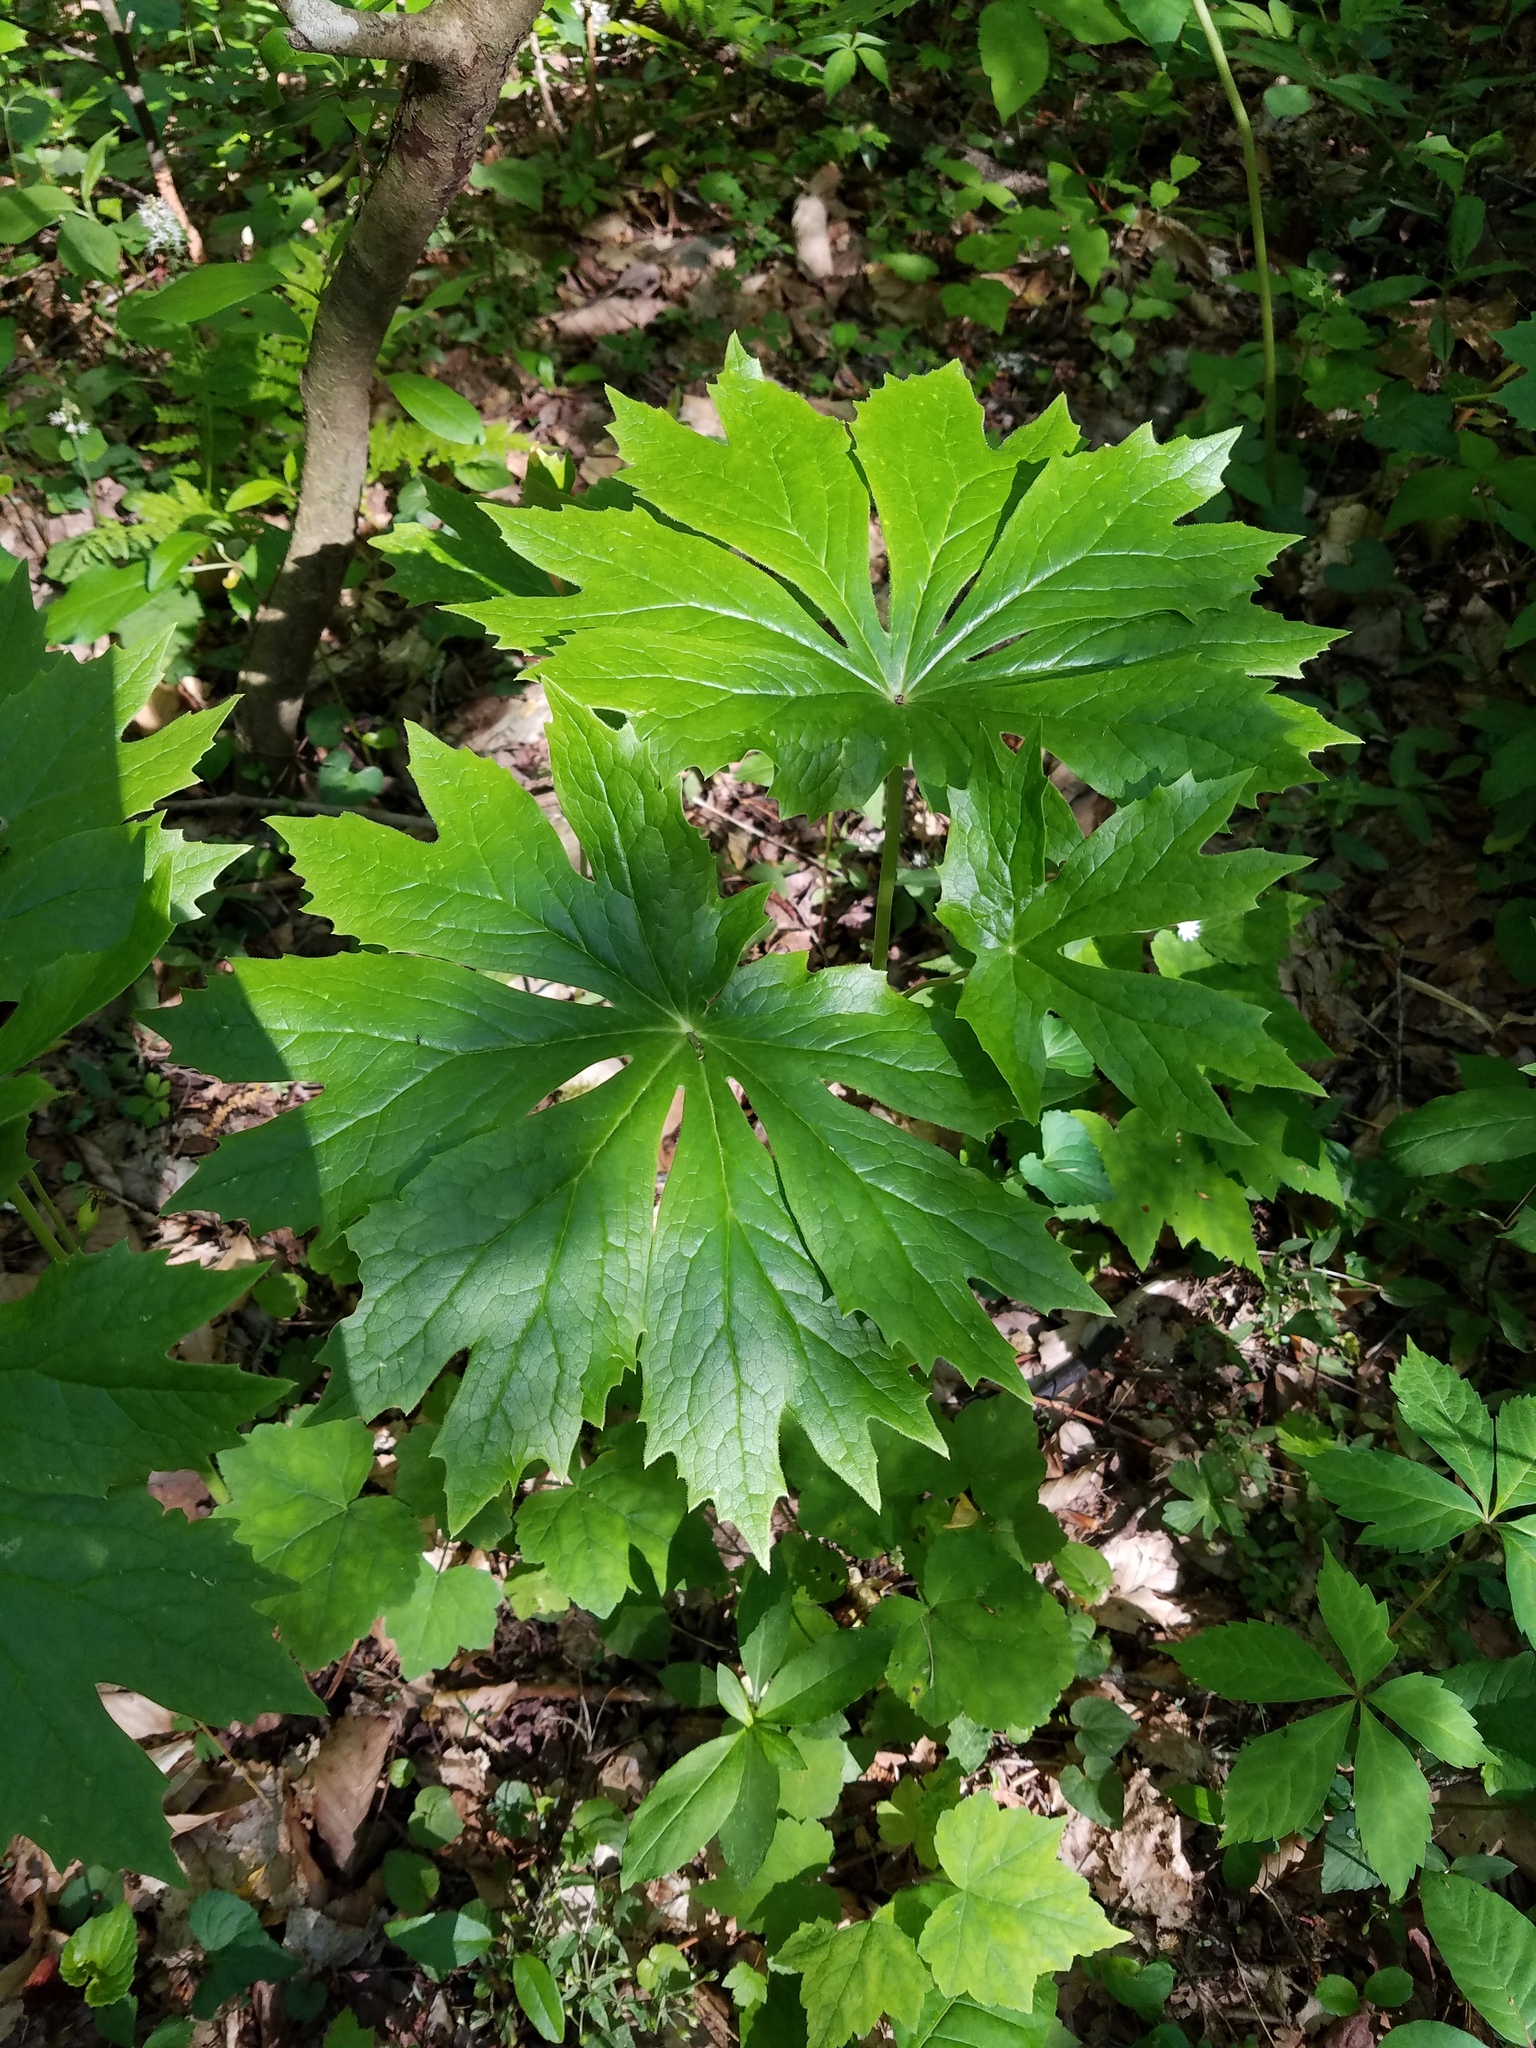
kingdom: Plantae
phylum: Tracheophyta
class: Magnoliopsida
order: Ranunculales
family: Berberidaceae
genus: Podophyllum
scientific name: Podophyllum peltatum
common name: Wild mandrake
